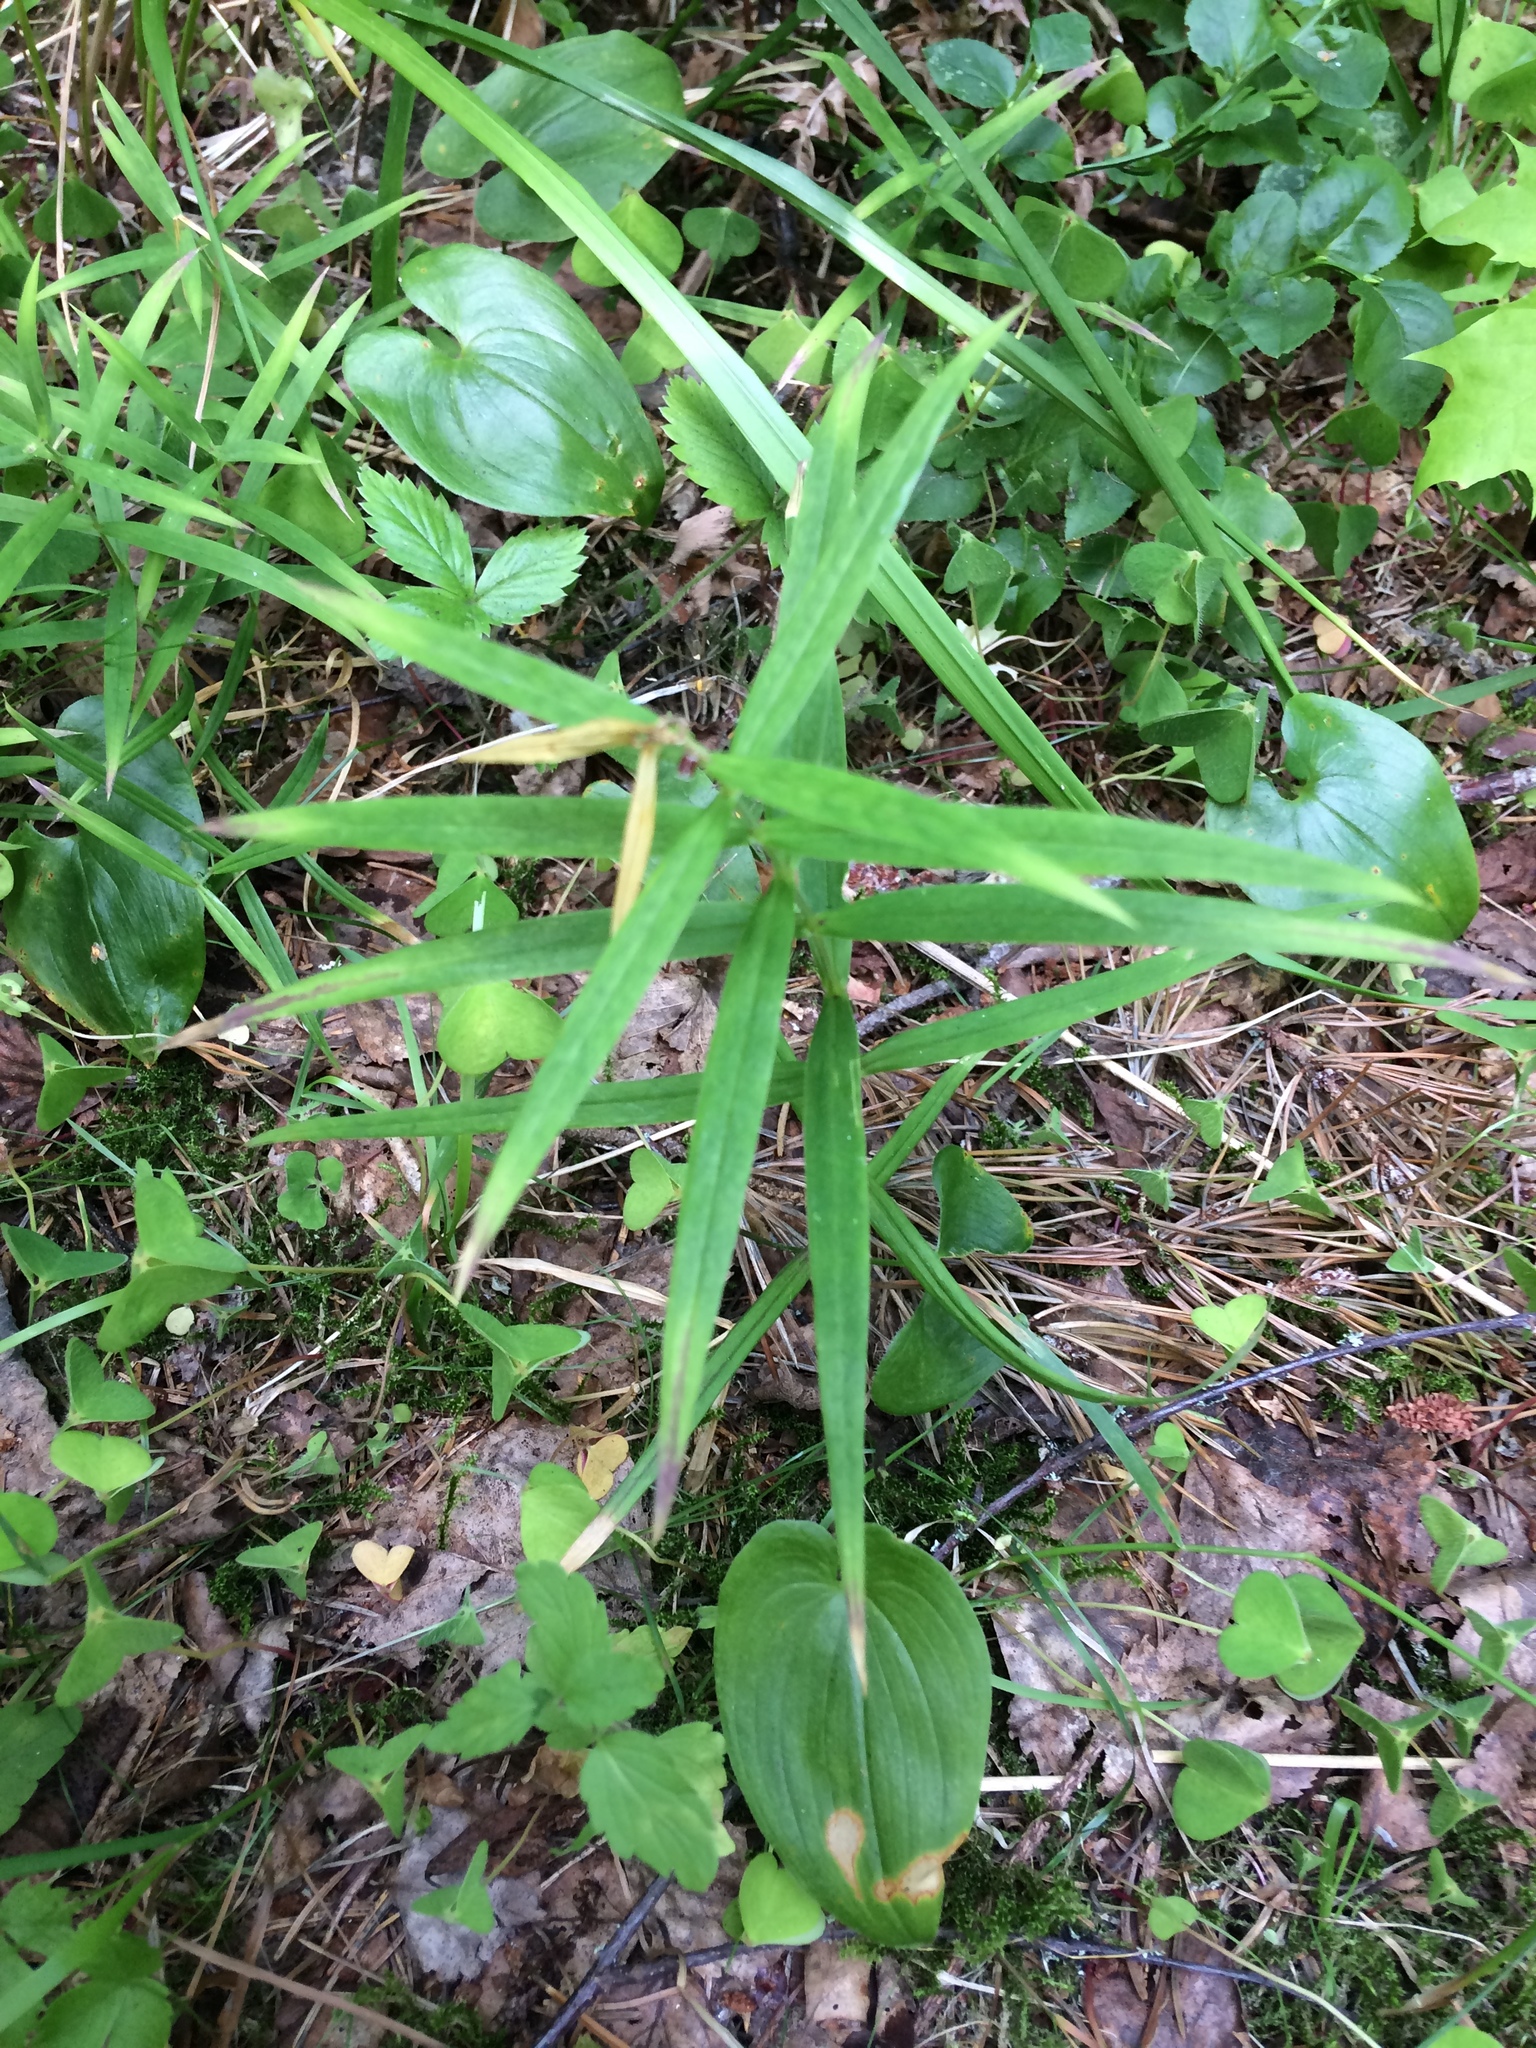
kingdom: Plantae
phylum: Tracheophyta
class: Magnoliopsida
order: Caryophyllales
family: Caryophyllaceae
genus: Rabelera
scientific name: Rabelera holostea
